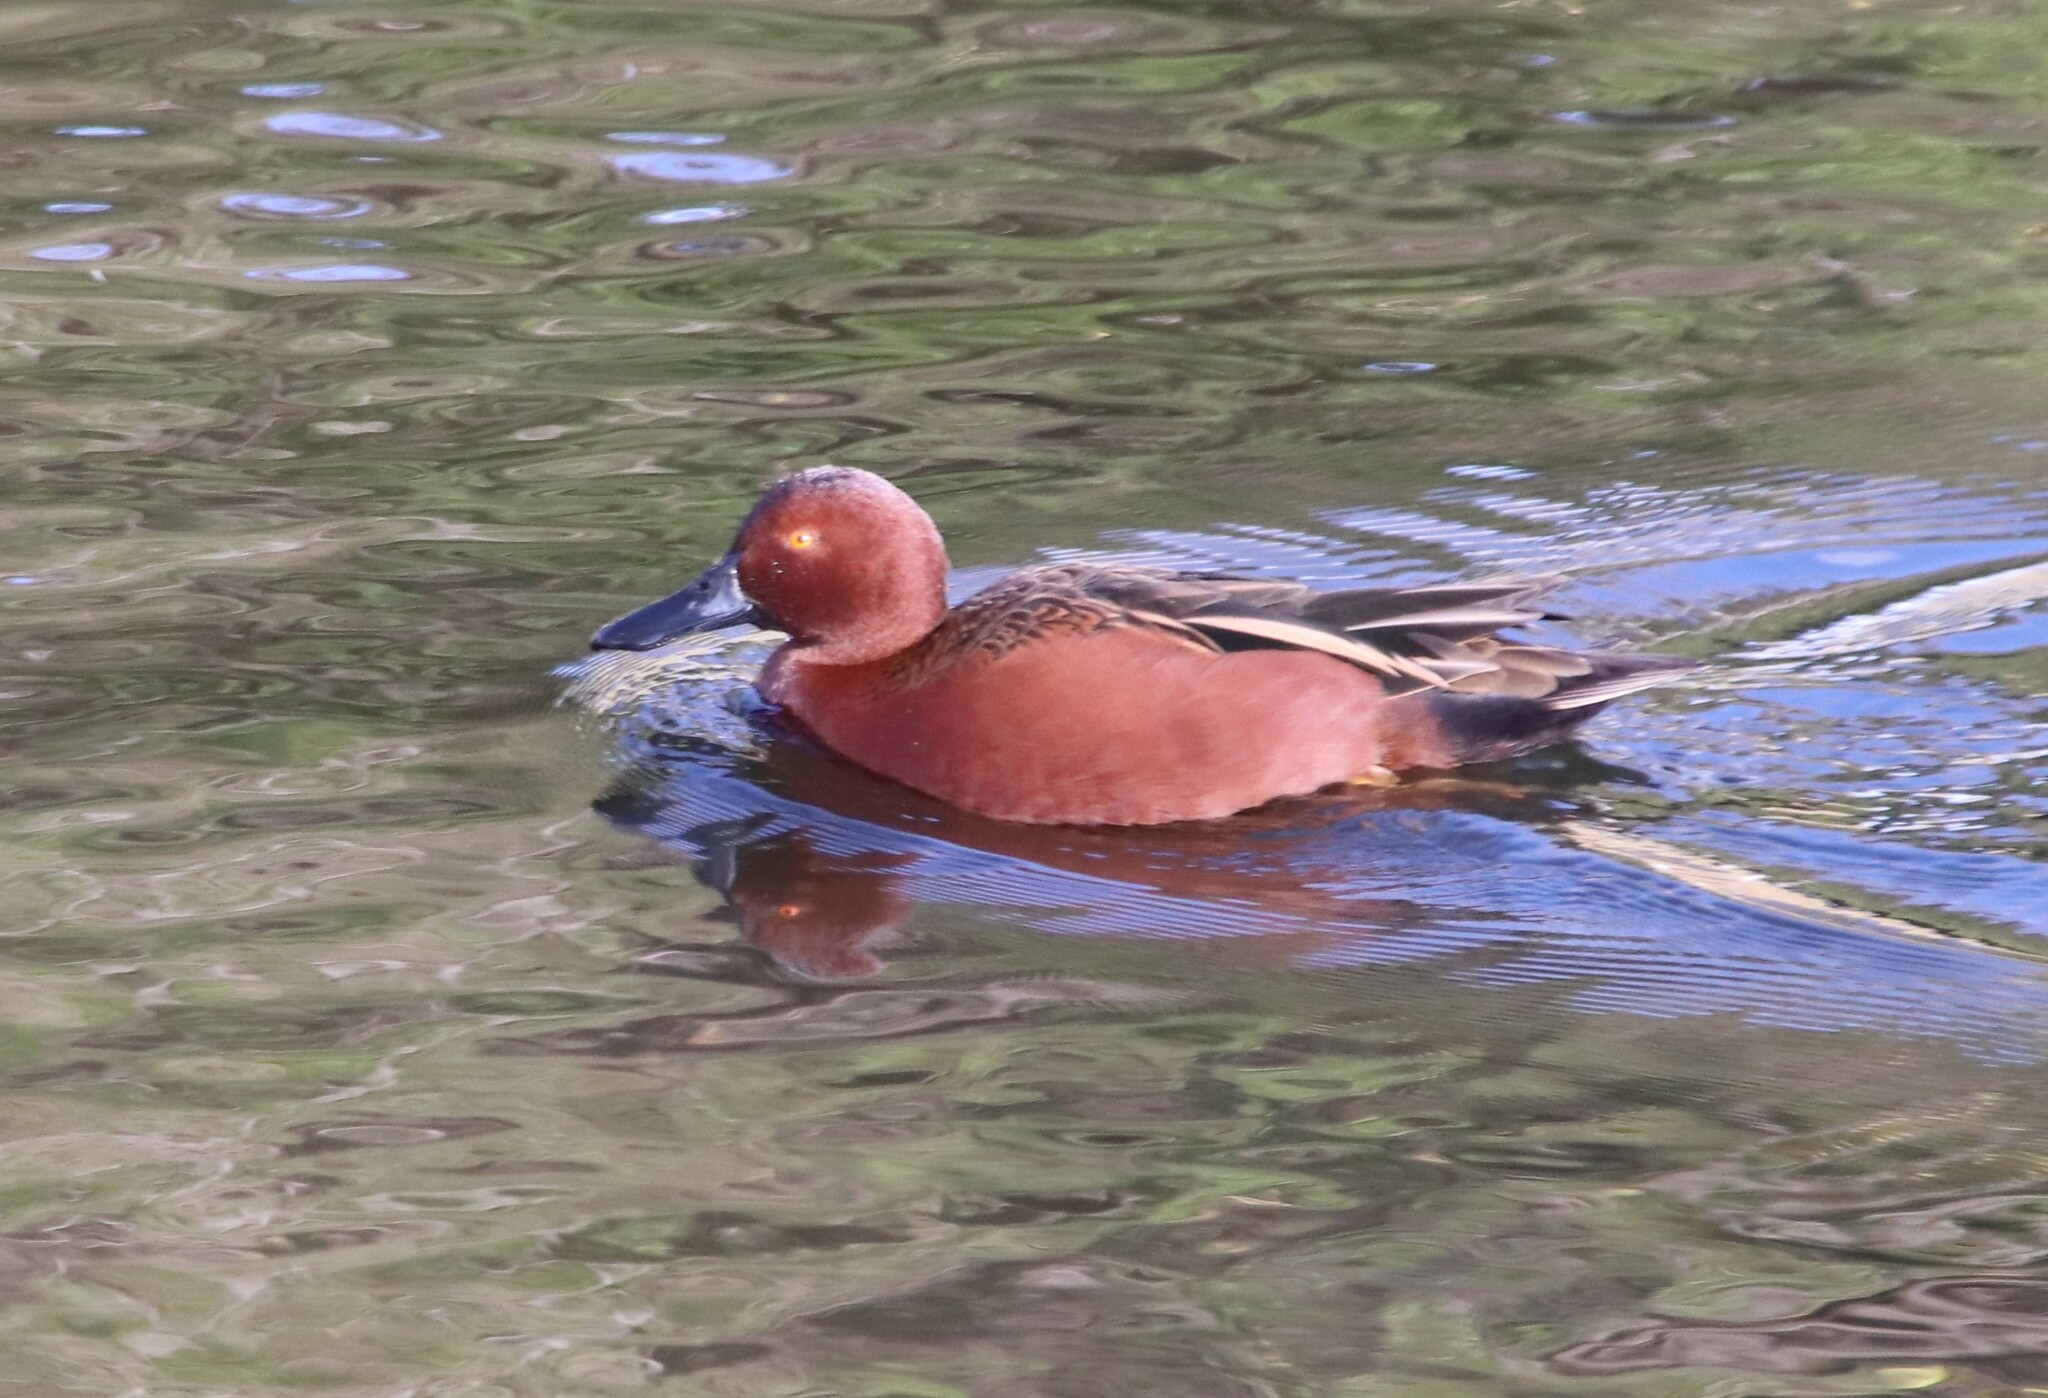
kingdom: Animalia
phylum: Chordata
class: Aves
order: Anseriformes
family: Anatidae
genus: Spatula
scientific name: Spatula cyanoptera
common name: Cinnamon teal
